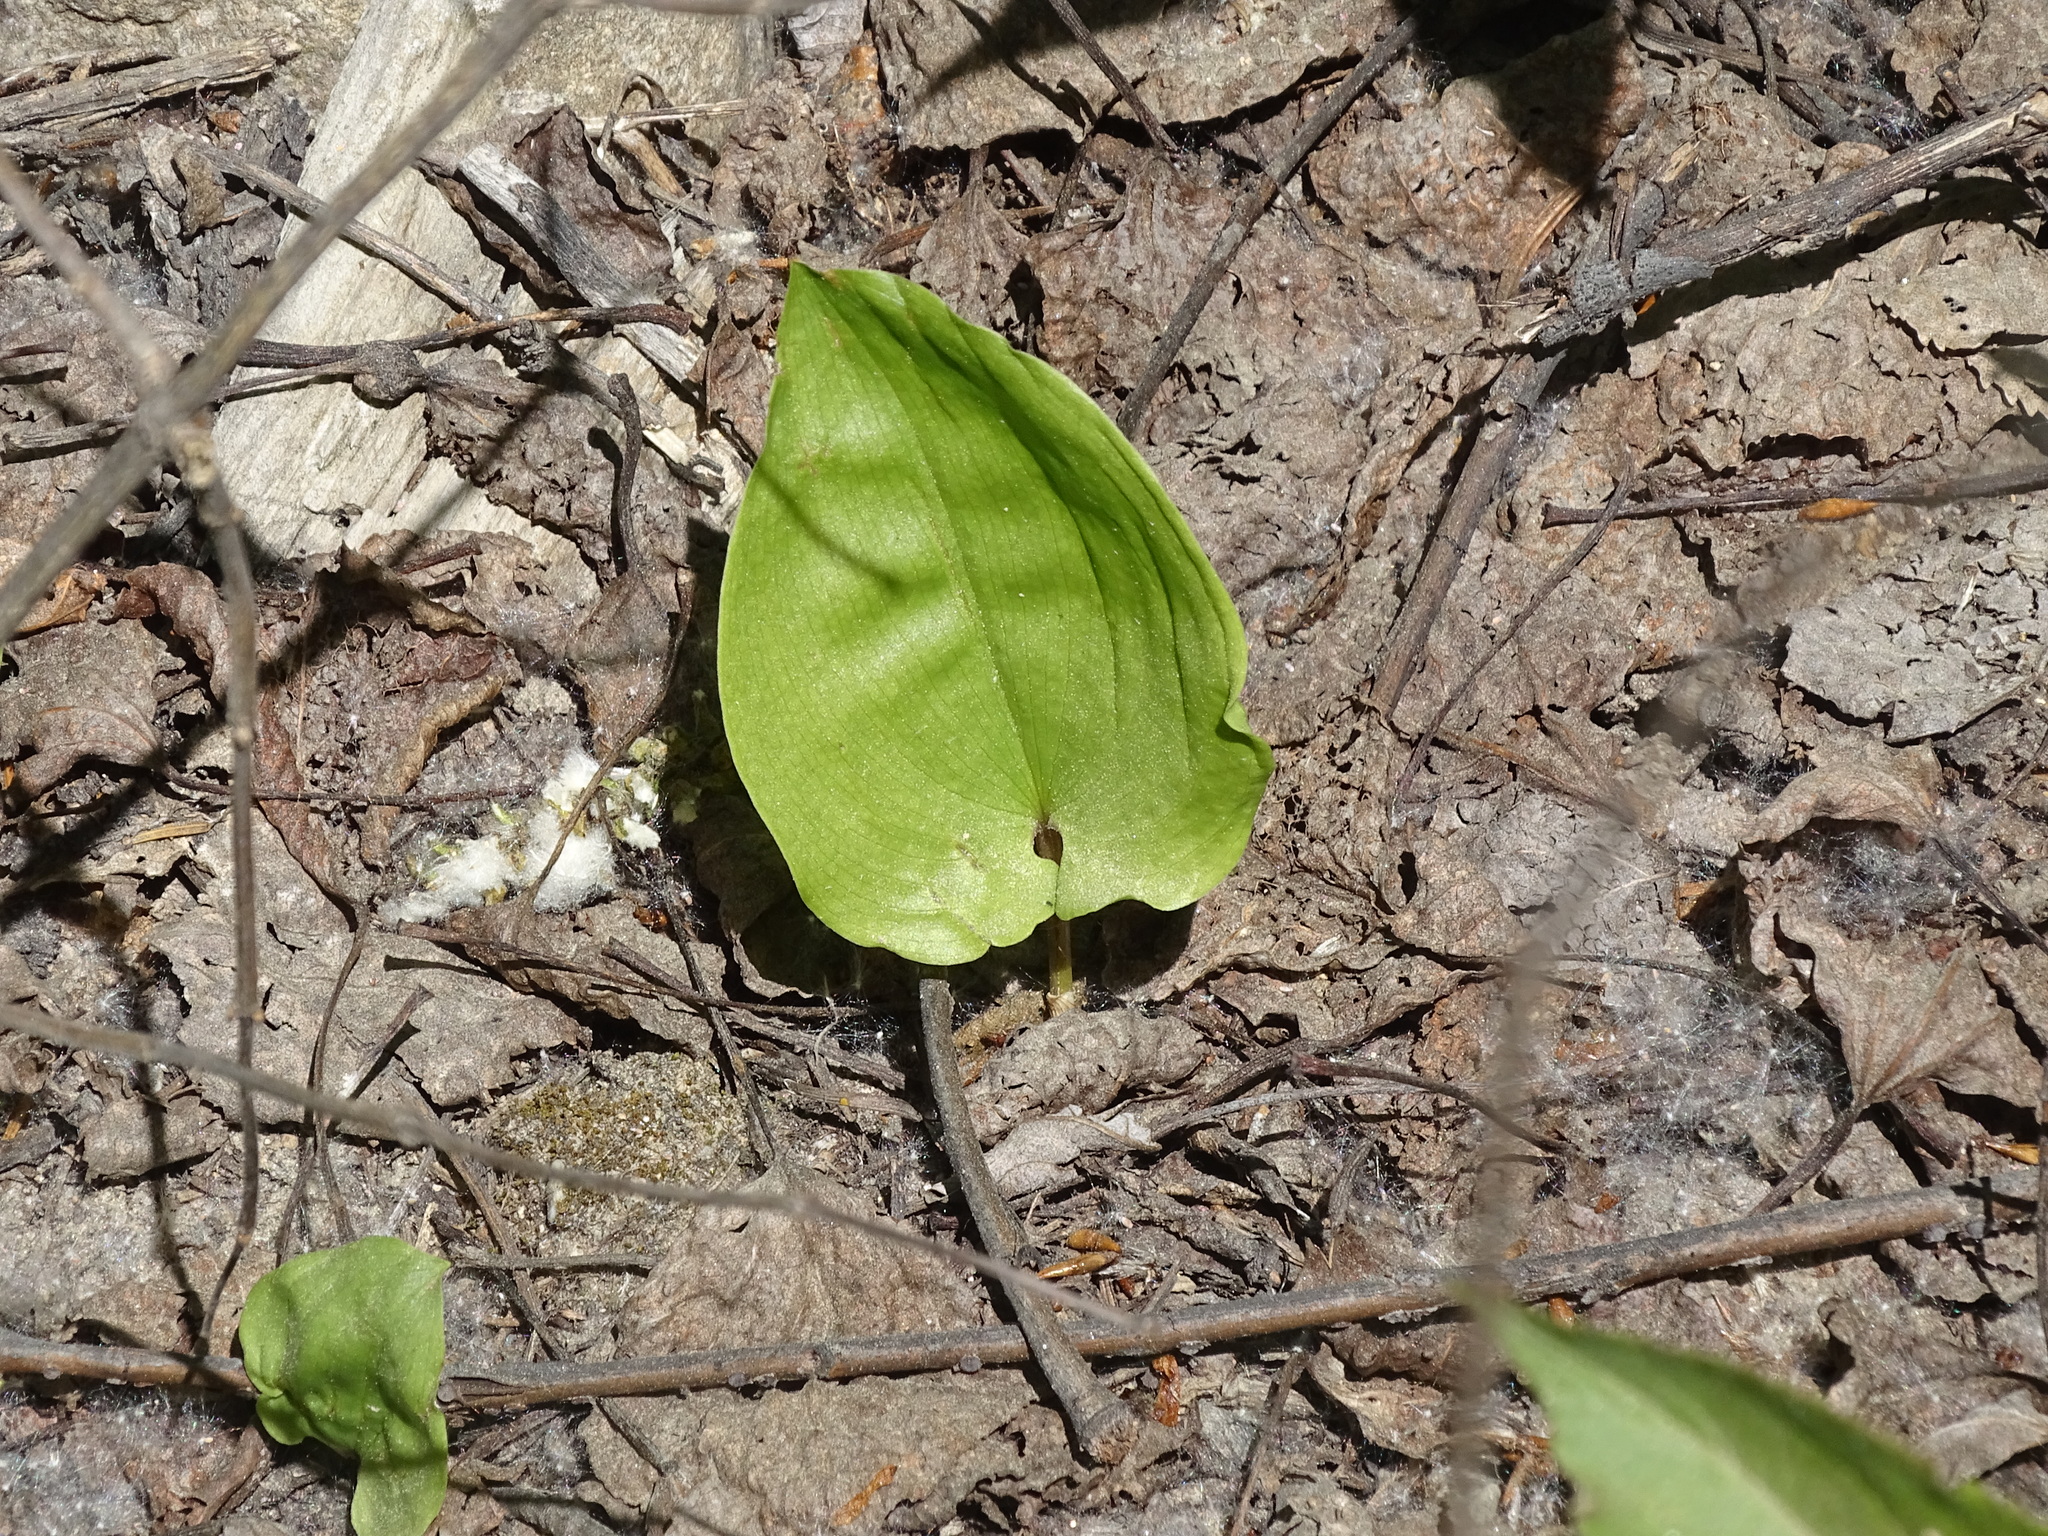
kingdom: Plantae
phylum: Tracheophyta
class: Liliopsida
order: Asparagales
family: Asparagaceae
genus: Maianthemum
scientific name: Maianthemum canadense
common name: False lily-of-the-valley
